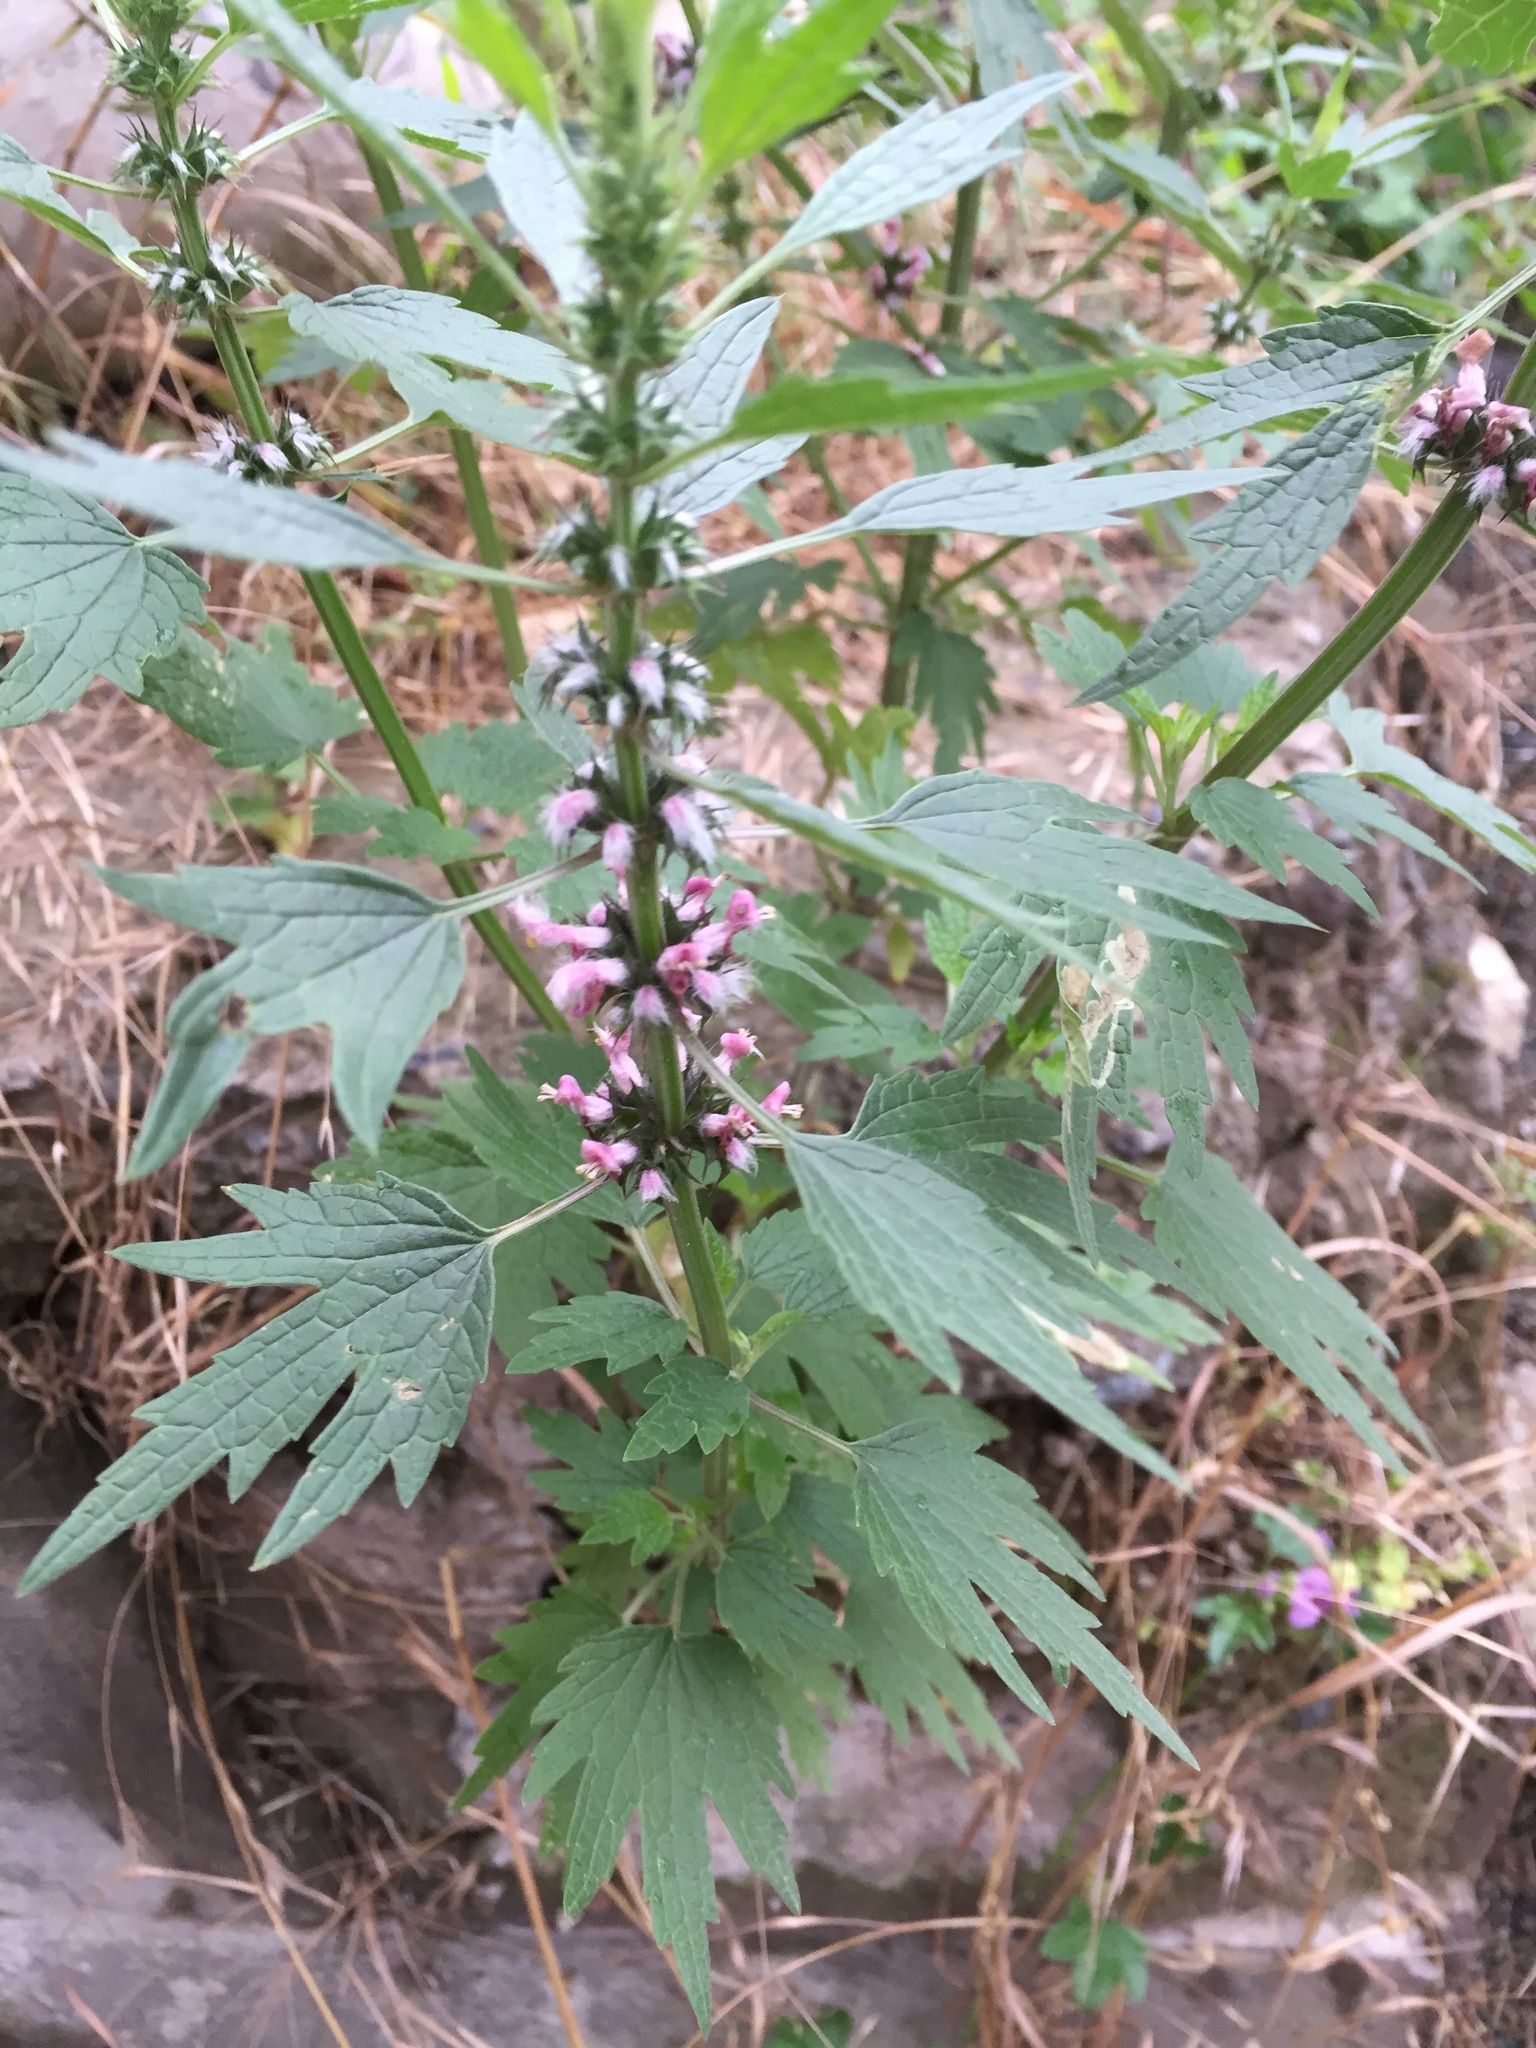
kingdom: Plantae
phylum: Tracheophyta
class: Magnoliopsida
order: Lamiales
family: Lamiaceae
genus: Leonurus
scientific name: Leonurus cardiaca
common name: Motherwort
